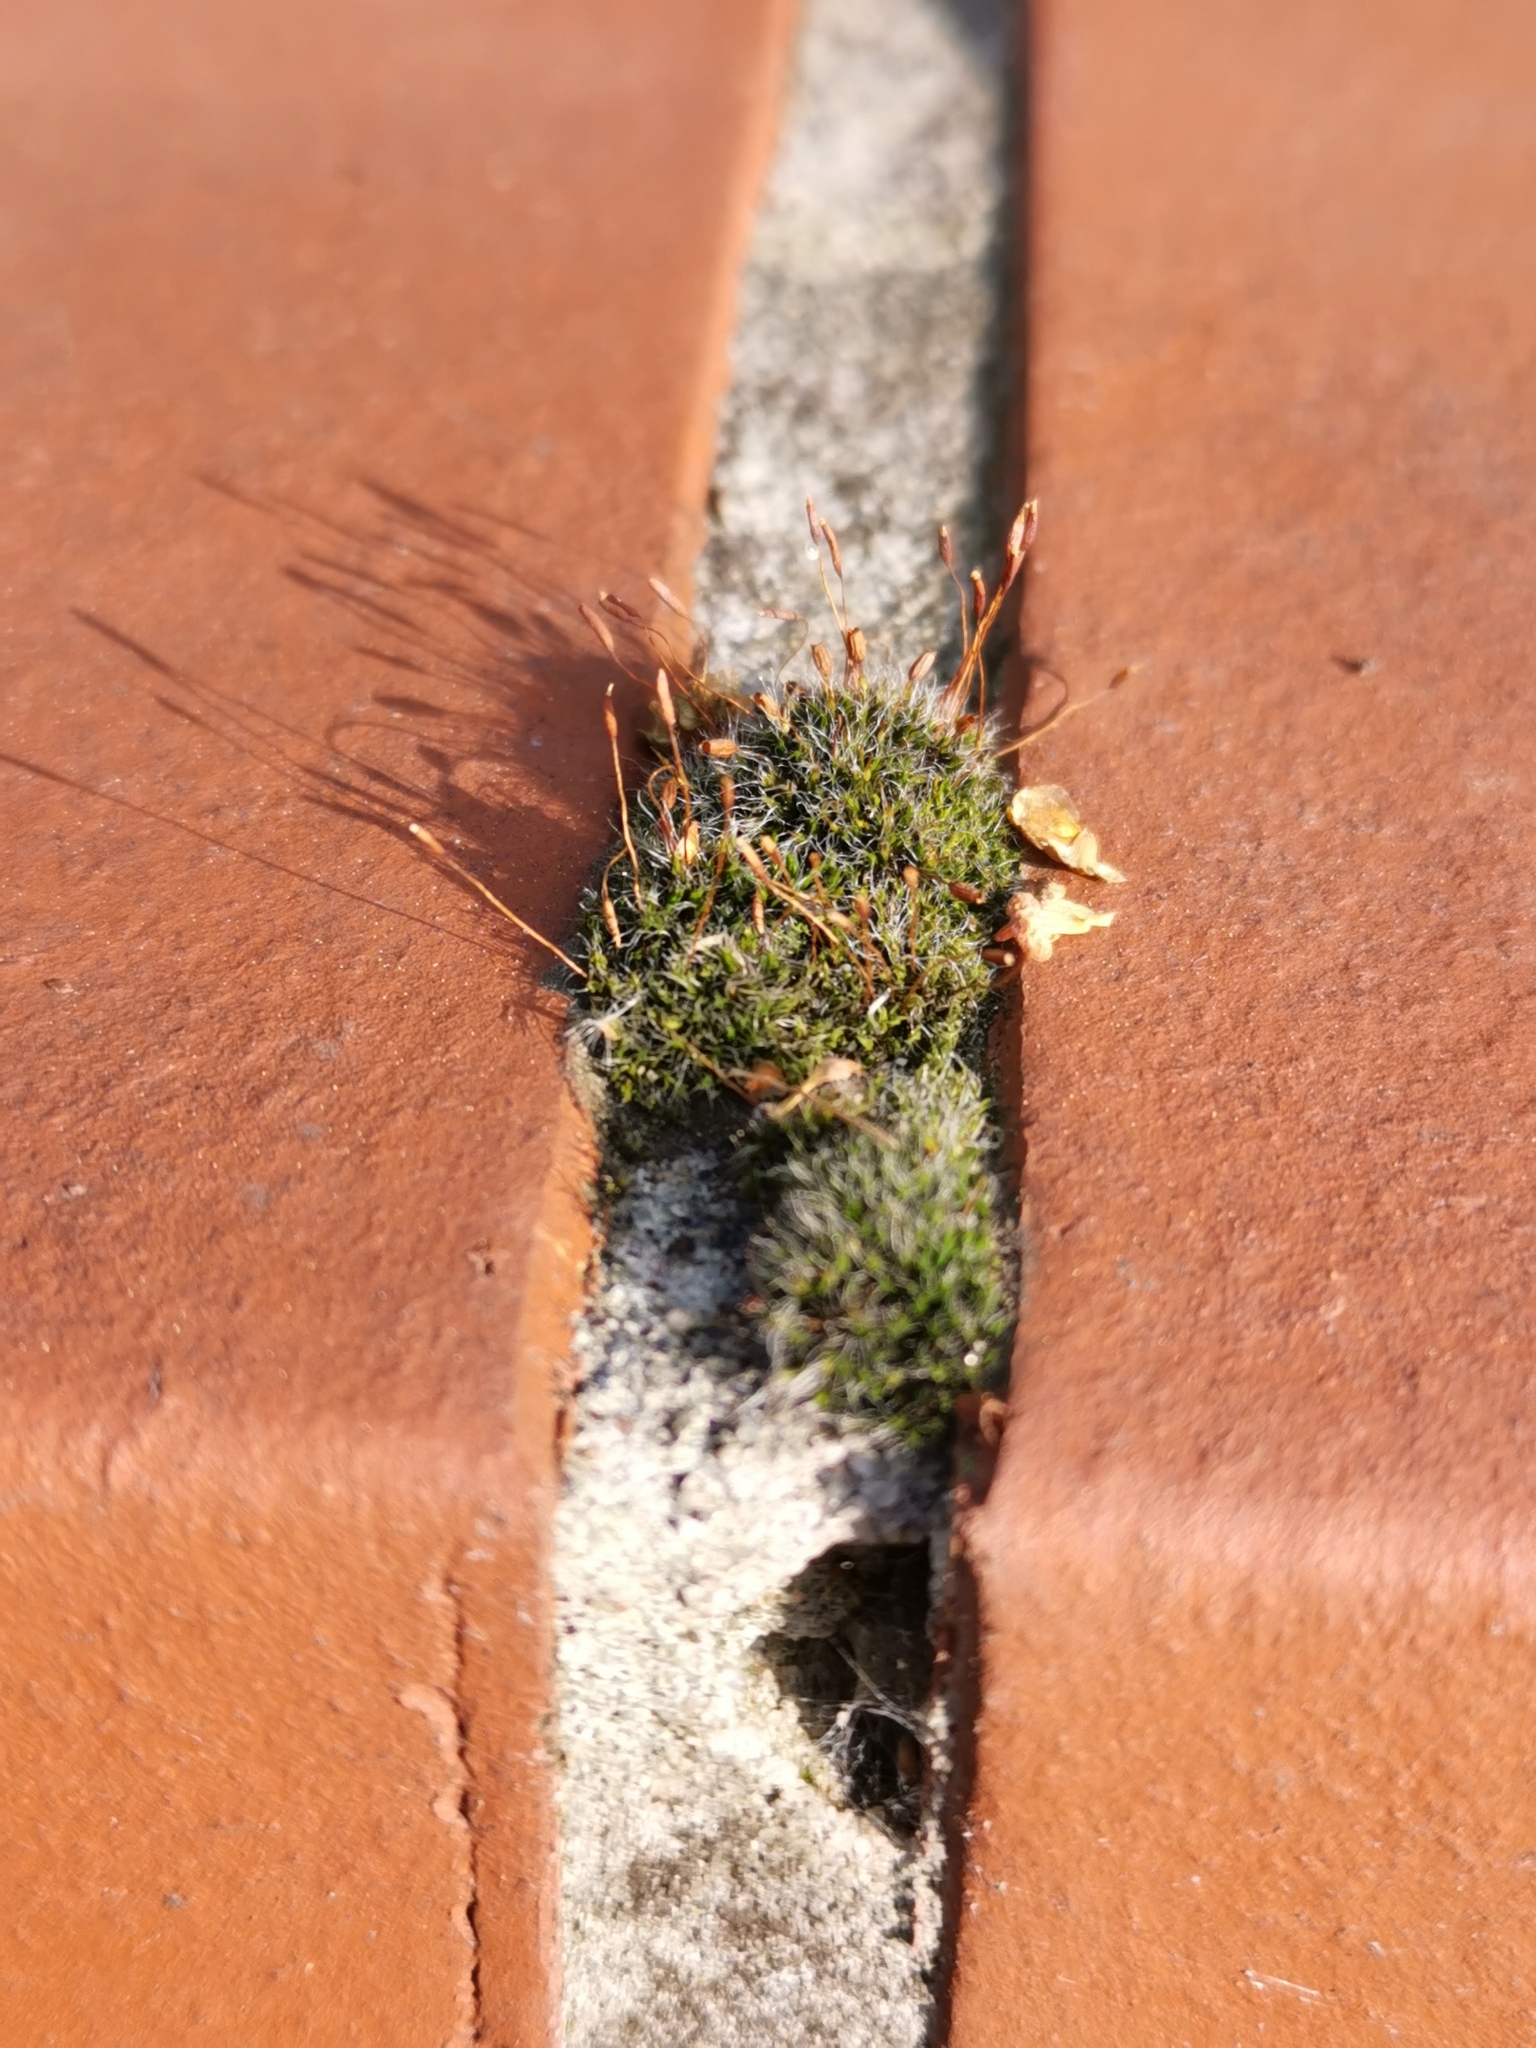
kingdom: Plantae
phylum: Bryophyta
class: Bryopsida
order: Pottiales
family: Pottiaceae
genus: Tortula
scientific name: Tortula muralis
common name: Wall screw-moss
